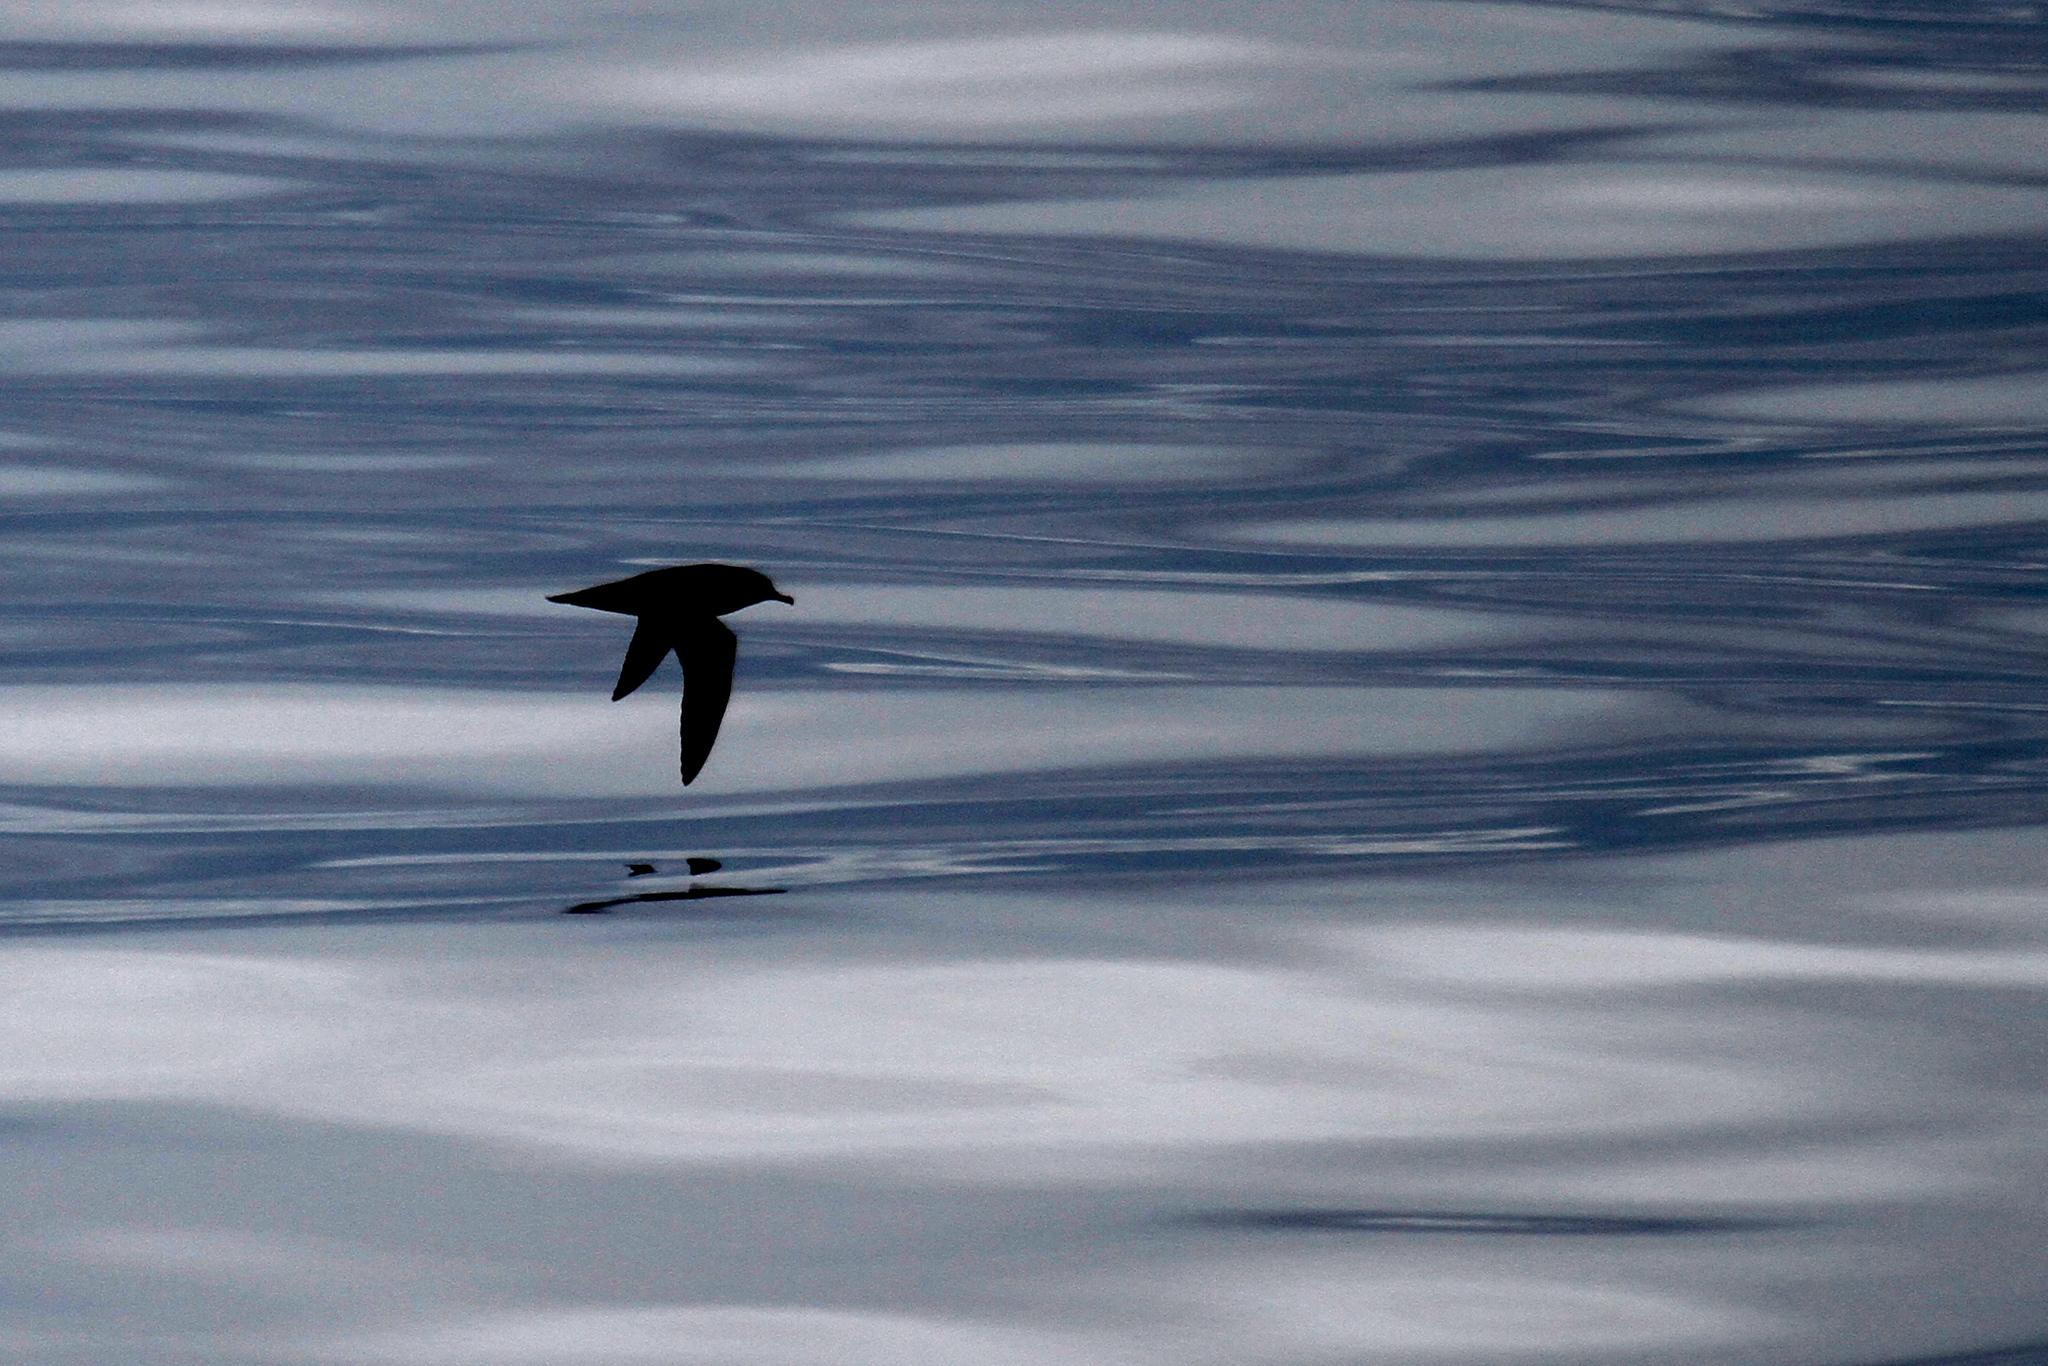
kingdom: Animalia
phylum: Chordata
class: Aves
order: Procellariiformes
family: Procellariidae
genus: Puffinus
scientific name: Puffinus griseus
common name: Sooty shearwater
